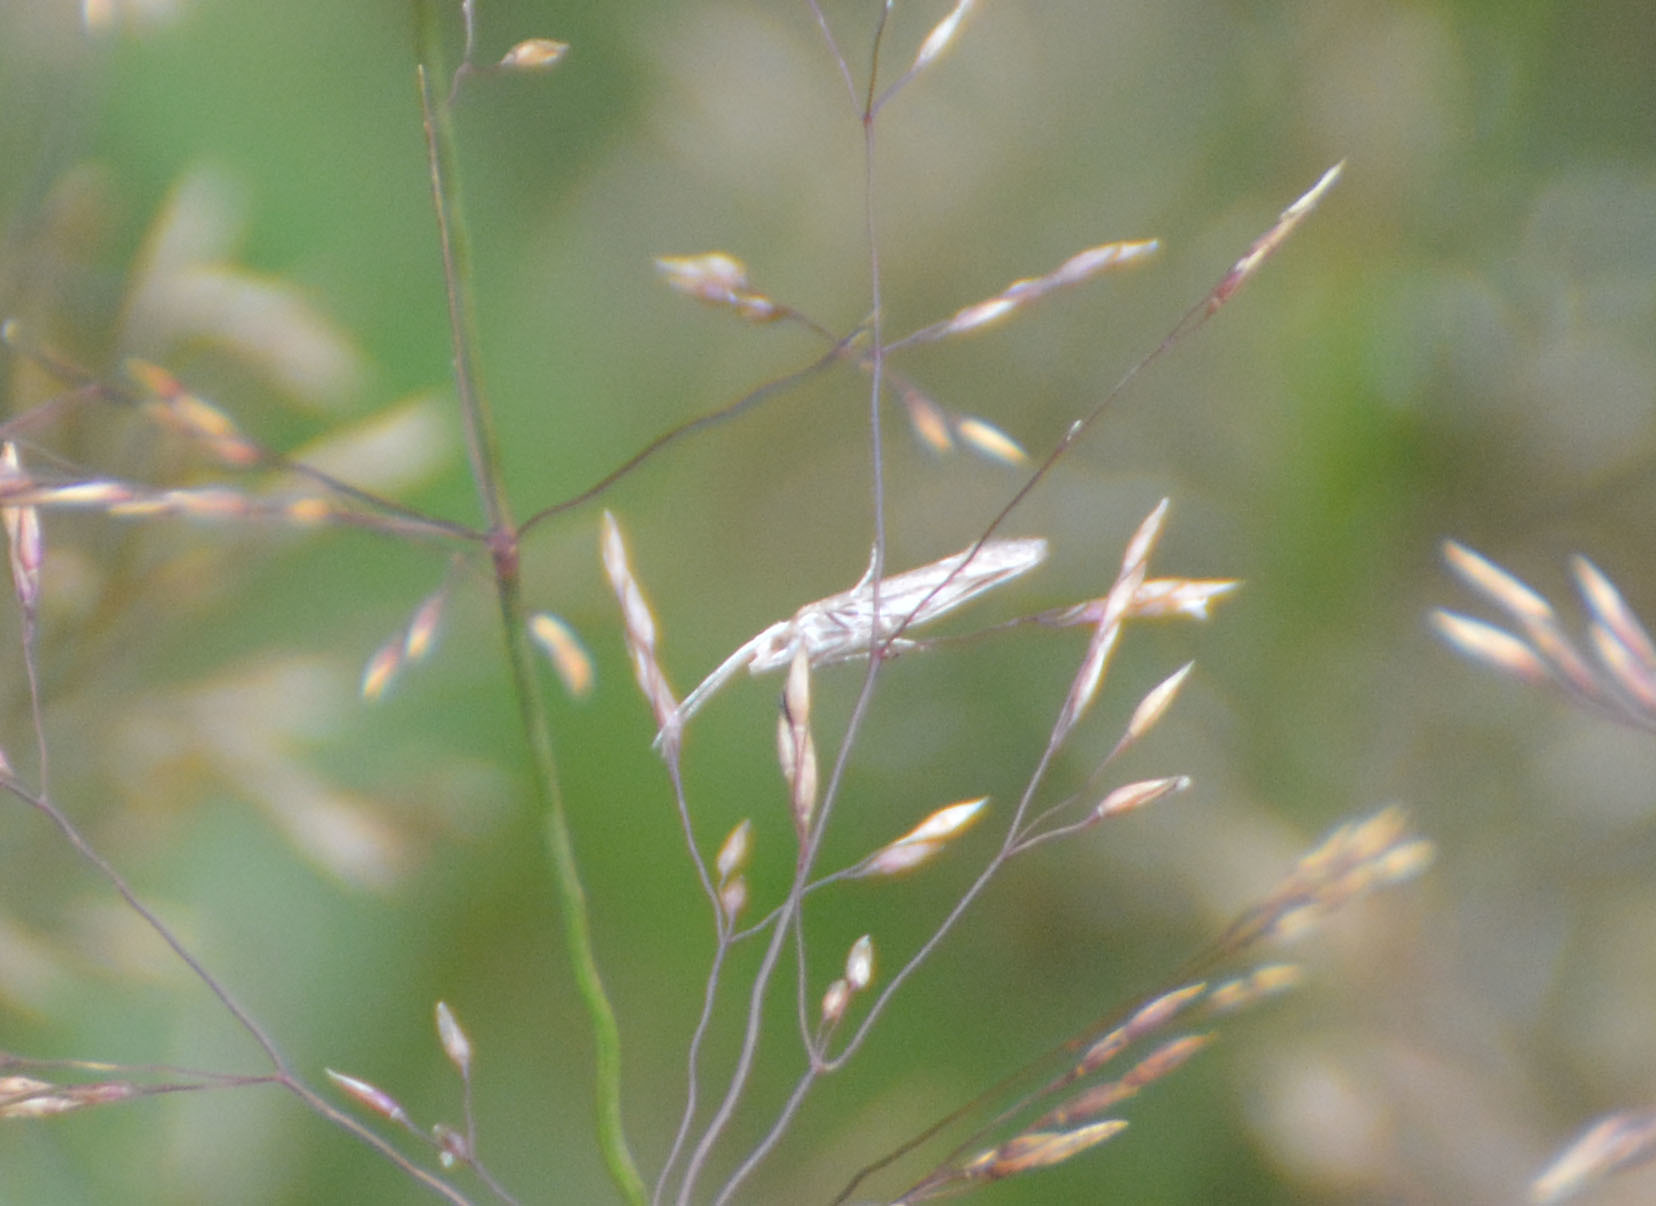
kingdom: Animalia
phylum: Arthropoda
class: Insecta
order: Lepidoptera
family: Plutellidae
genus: Plutella
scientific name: Plutella xylostella
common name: Diamond-back moth
